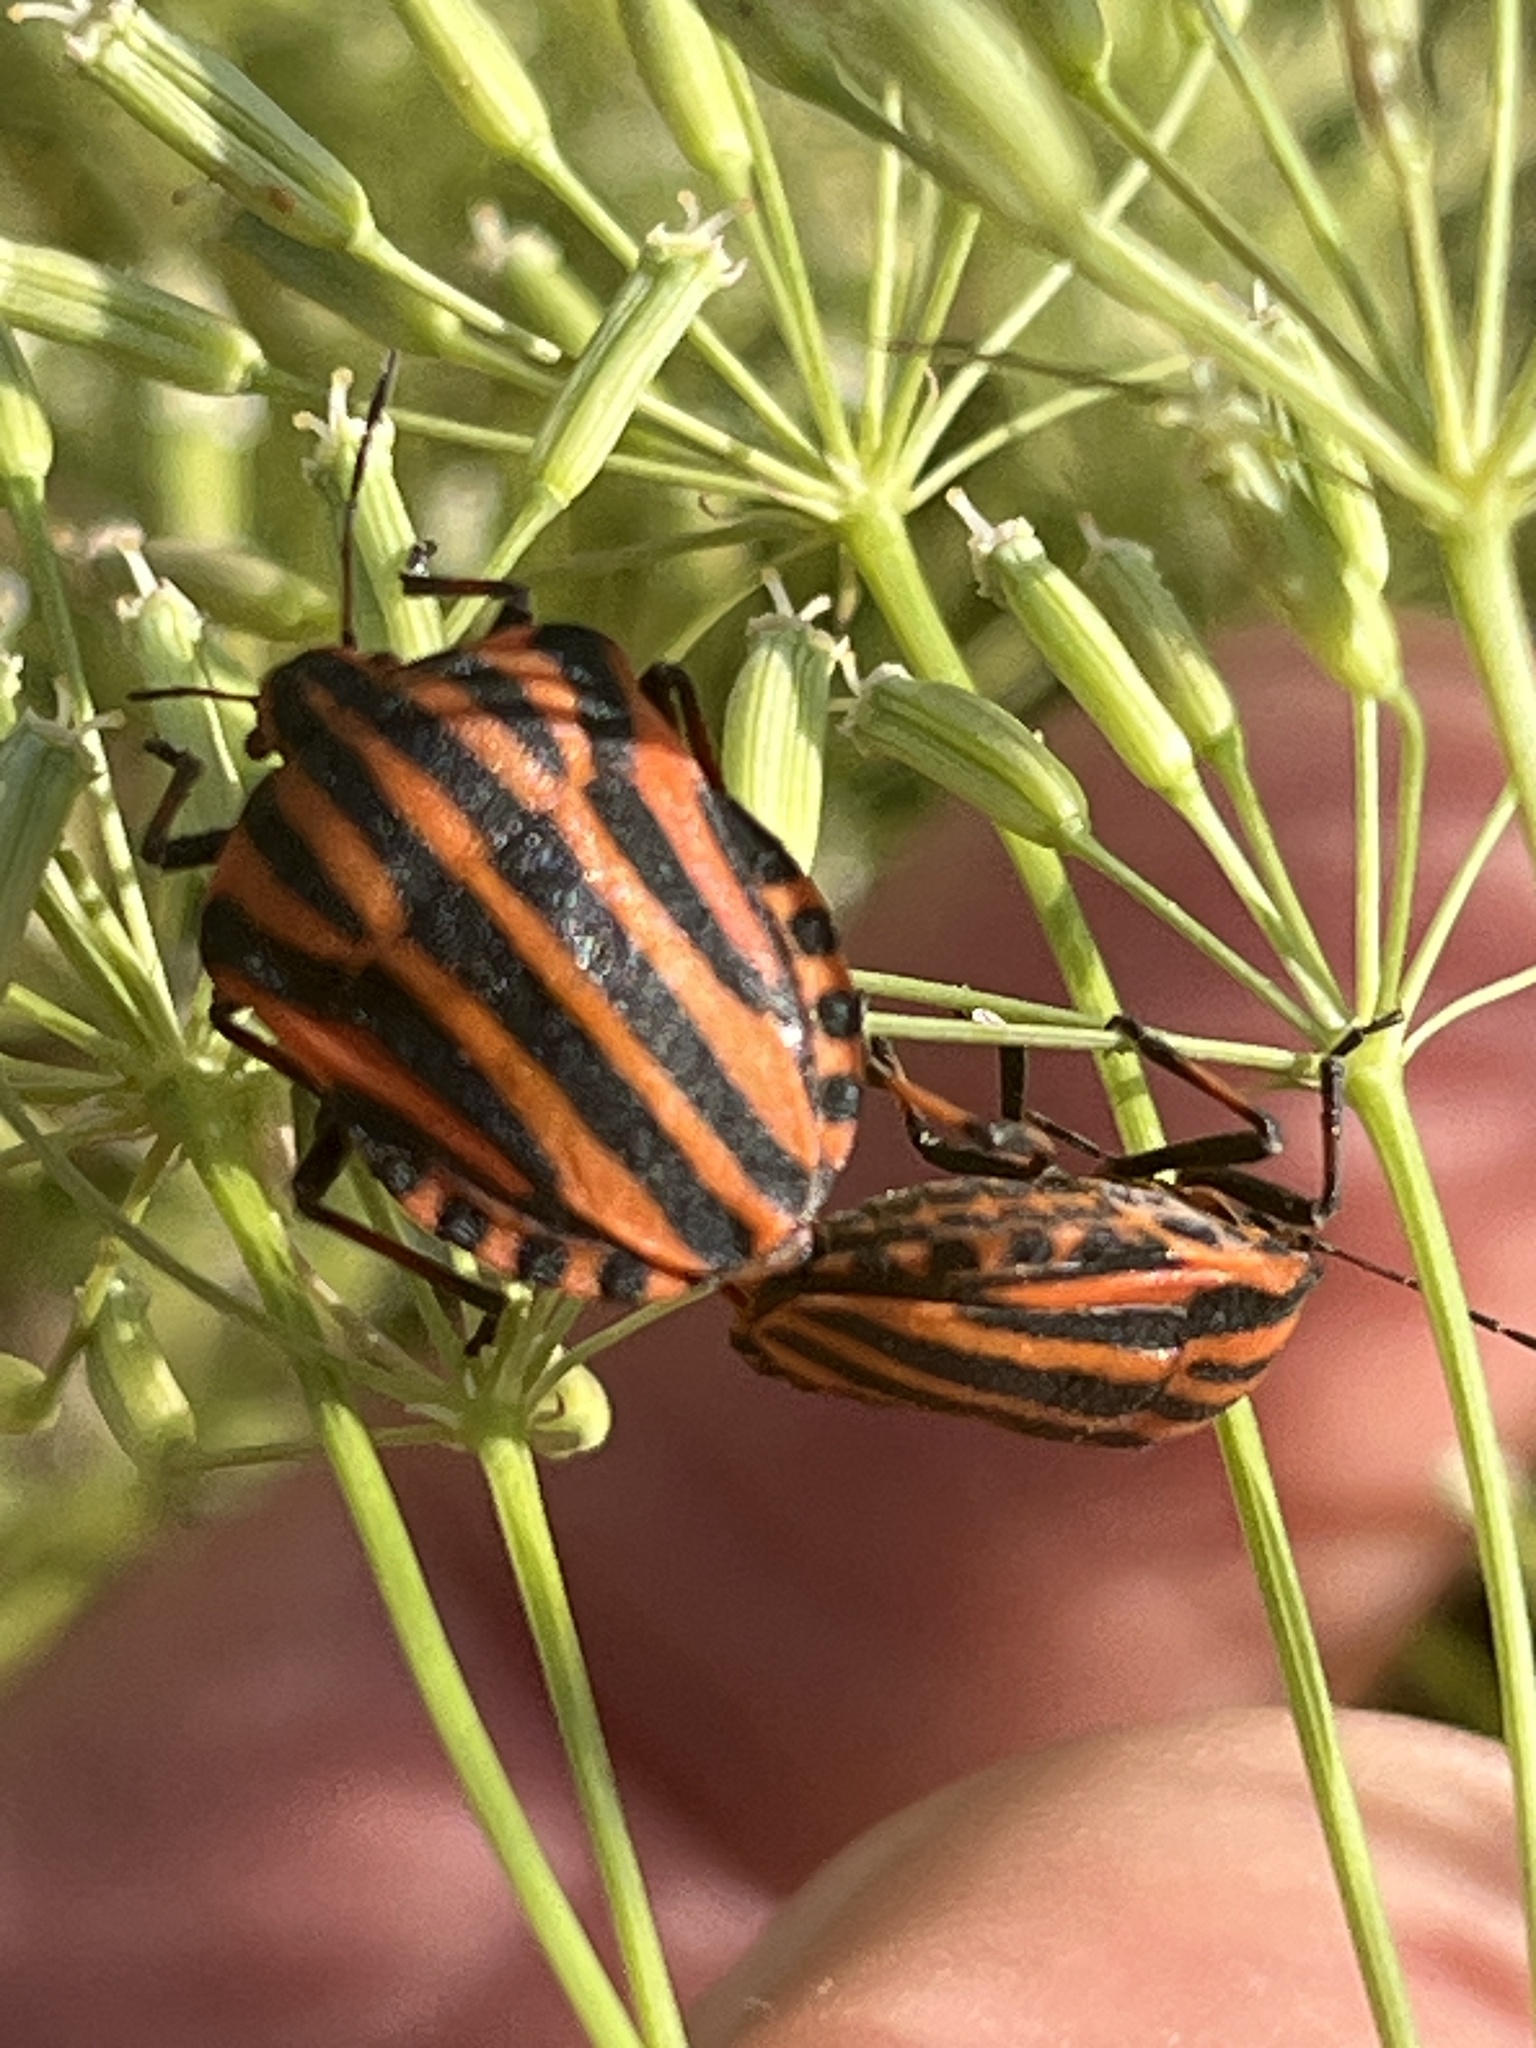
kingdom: Animalia
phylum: Arthropoda
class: Insecta
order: Hemiptera
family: Pentatomidae
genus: Graphosoma
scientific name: Graphosoma italicum
